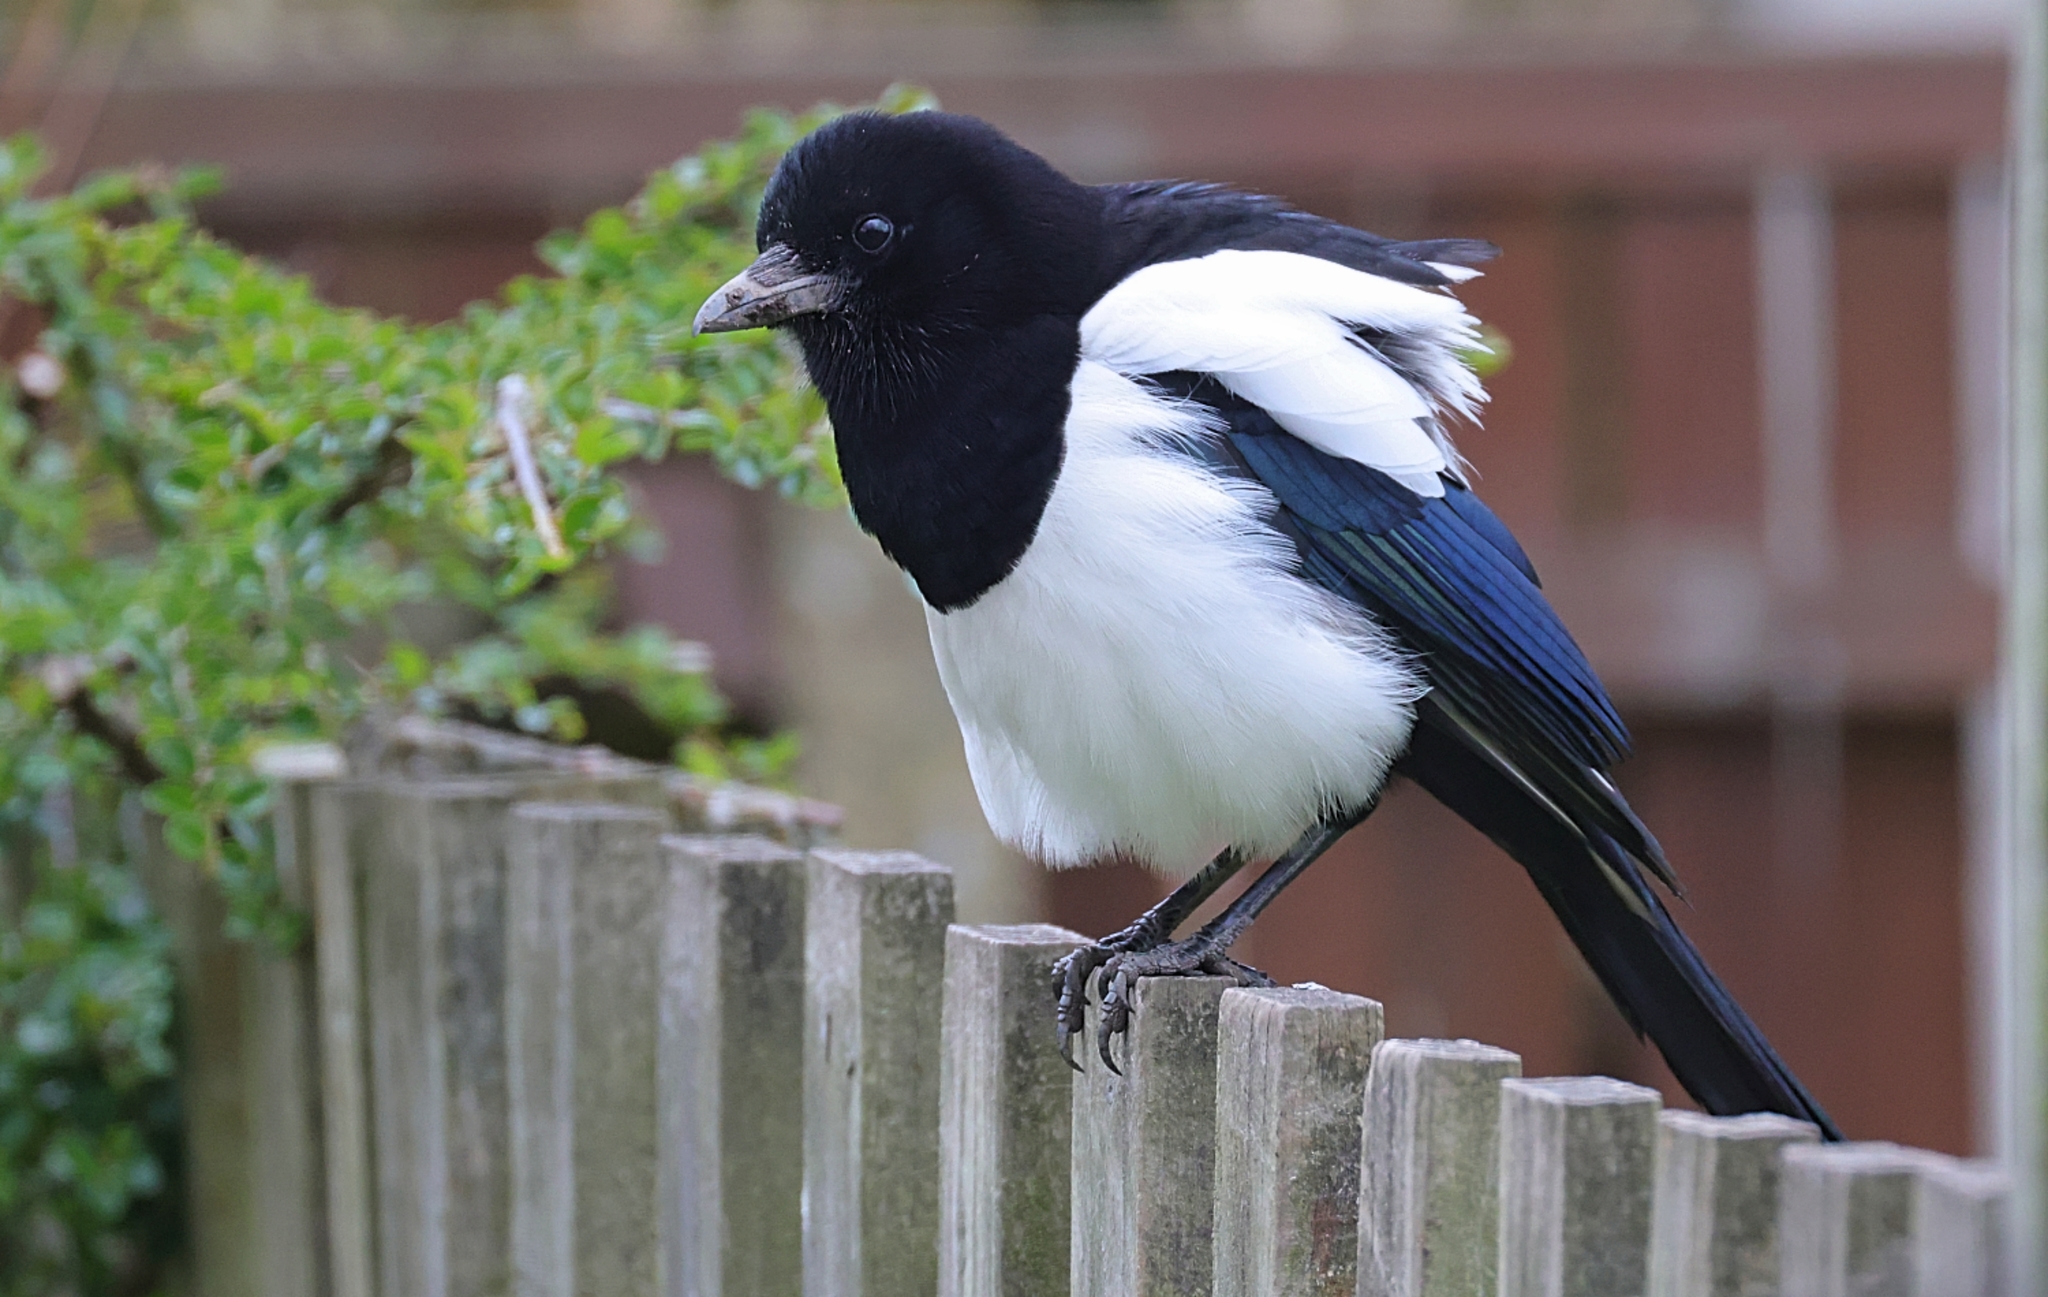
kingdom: Animalia
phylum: Chordata
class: Aves
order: Passeriformes
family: Corvidae
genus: Pica
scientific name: Pica pica
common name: Eurasian magpie
